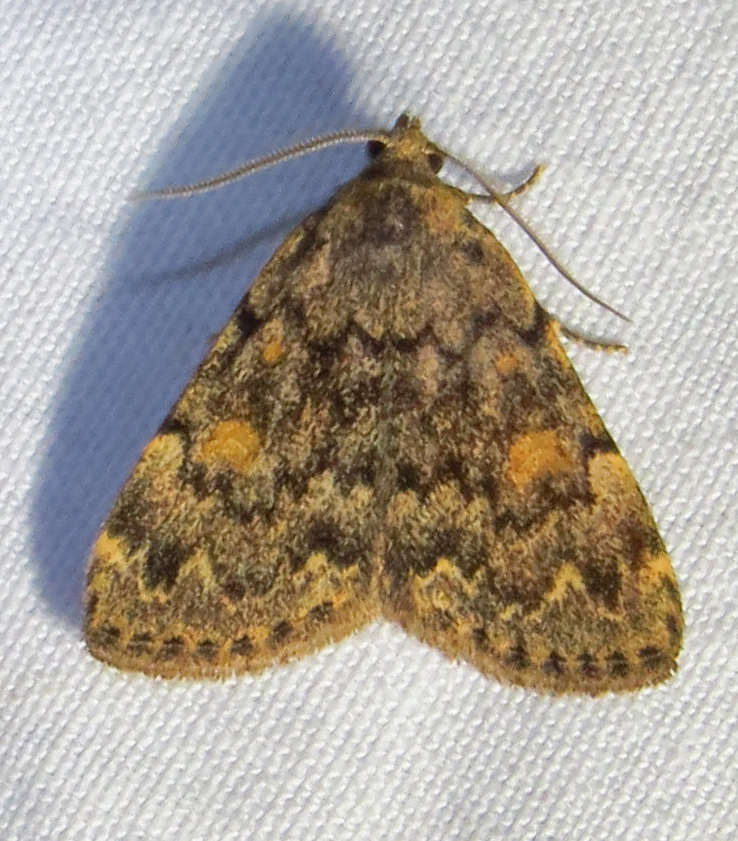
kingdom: Animalia
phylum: Arthropoda
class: Insecta
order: Lepidoptera
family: Erebidae
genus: Idia
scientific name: Idia aemula
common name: Common idia moth
